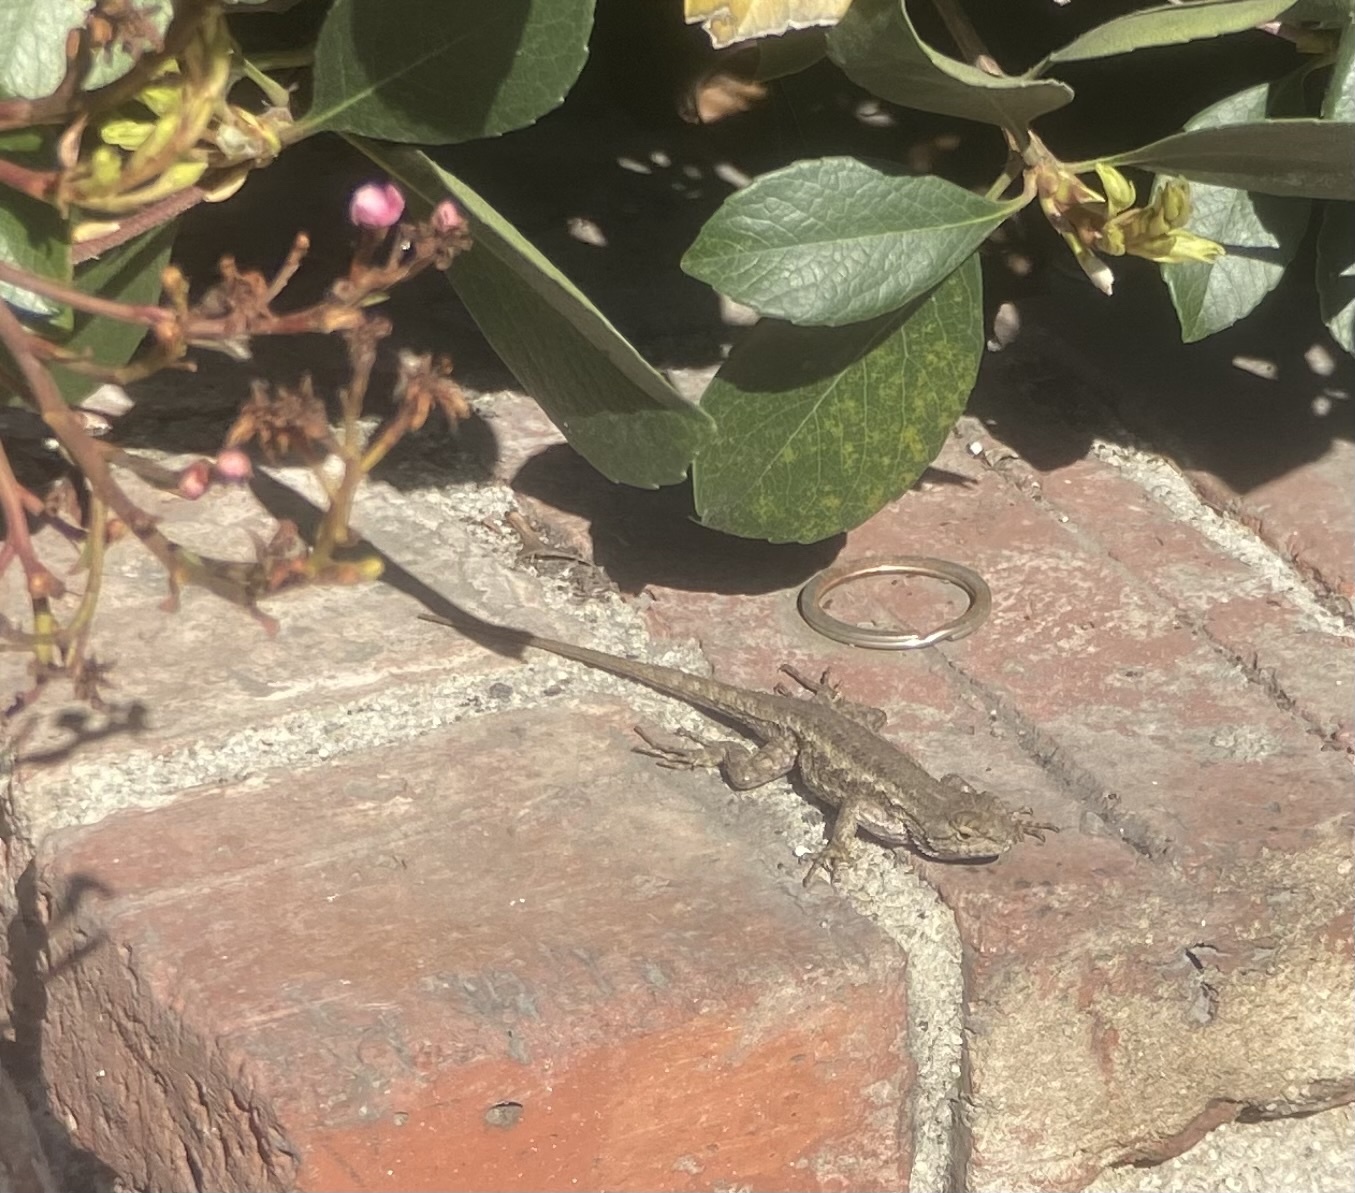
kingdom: Animalia
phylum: Chordata
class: Squamata
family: Phrynosomatidae
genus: Sceloporus
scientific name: Sceloporus occidentalis
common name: Western fence lizard
